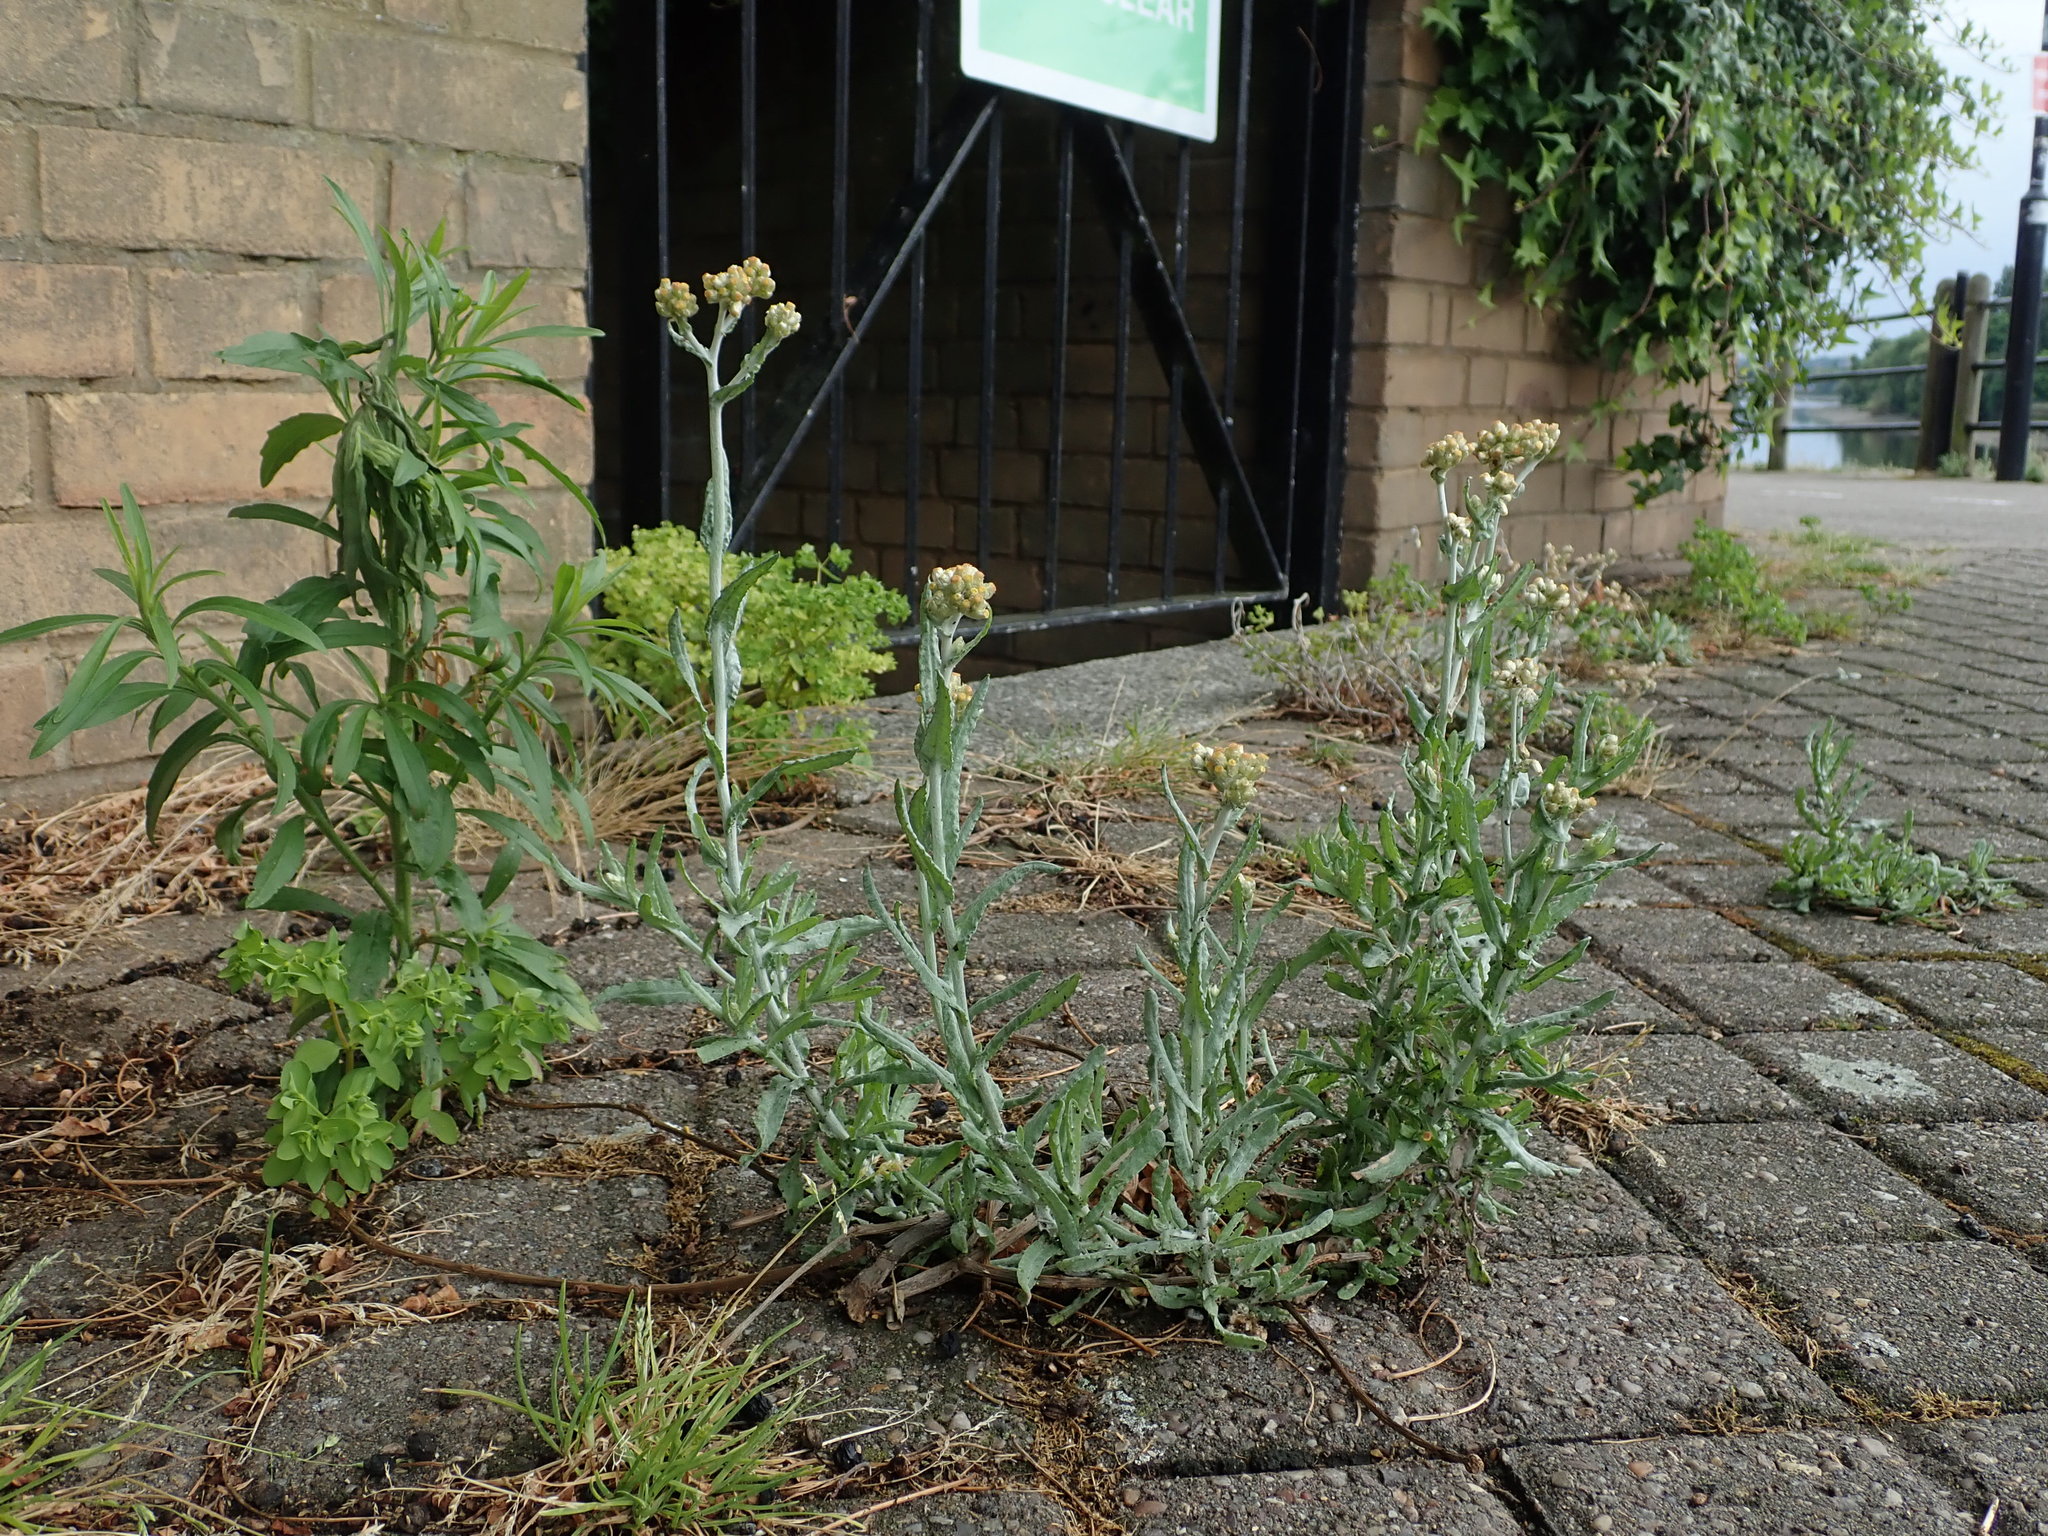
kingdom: Plantae
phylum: Tracheophyta
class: Magnoliopsida
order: Asterales
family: Asteraceae
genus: Helichrysum
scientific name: Helichrysum luteoalbum
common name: Daisy
